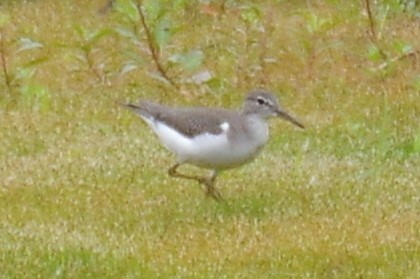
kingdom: Animalia
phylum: Chordata
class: Aves
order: Charadriiformes
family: Scolopacidae
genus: Actitis
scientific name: Actitis macularius
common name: Spotted sandpiper
